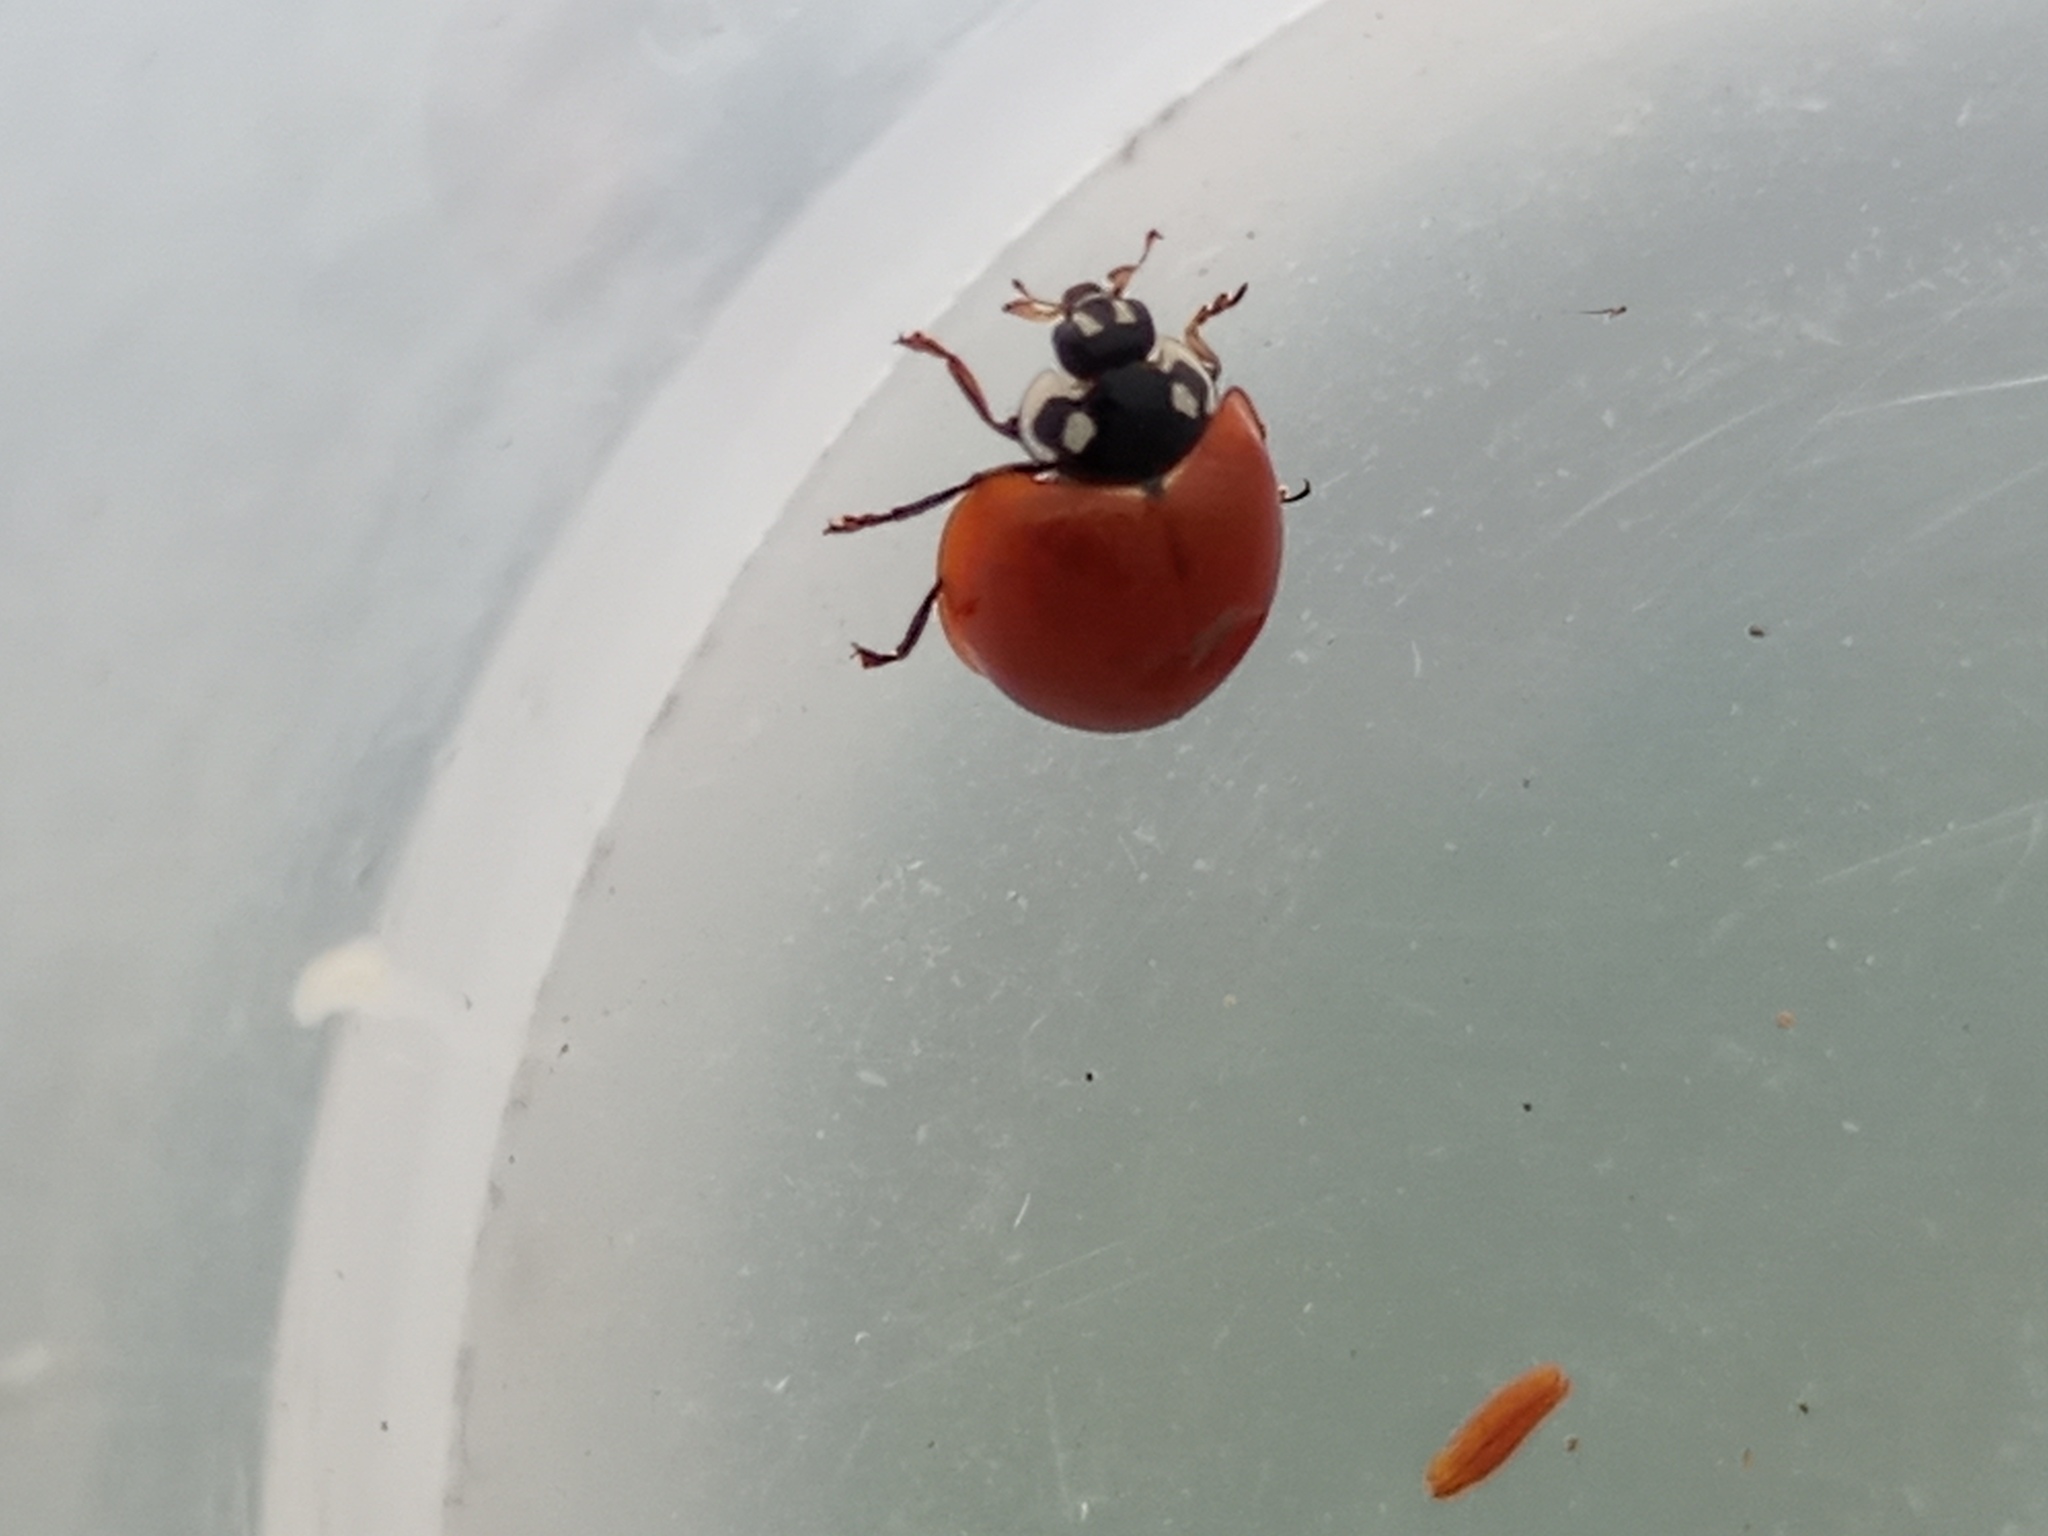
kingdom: Animalia
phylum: Arthropoda
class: Insecta
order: Coleoptera
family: Coccinellidae
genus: Cycloneda
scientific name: Cycloneda sanguinea
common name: Ladybird beetle
